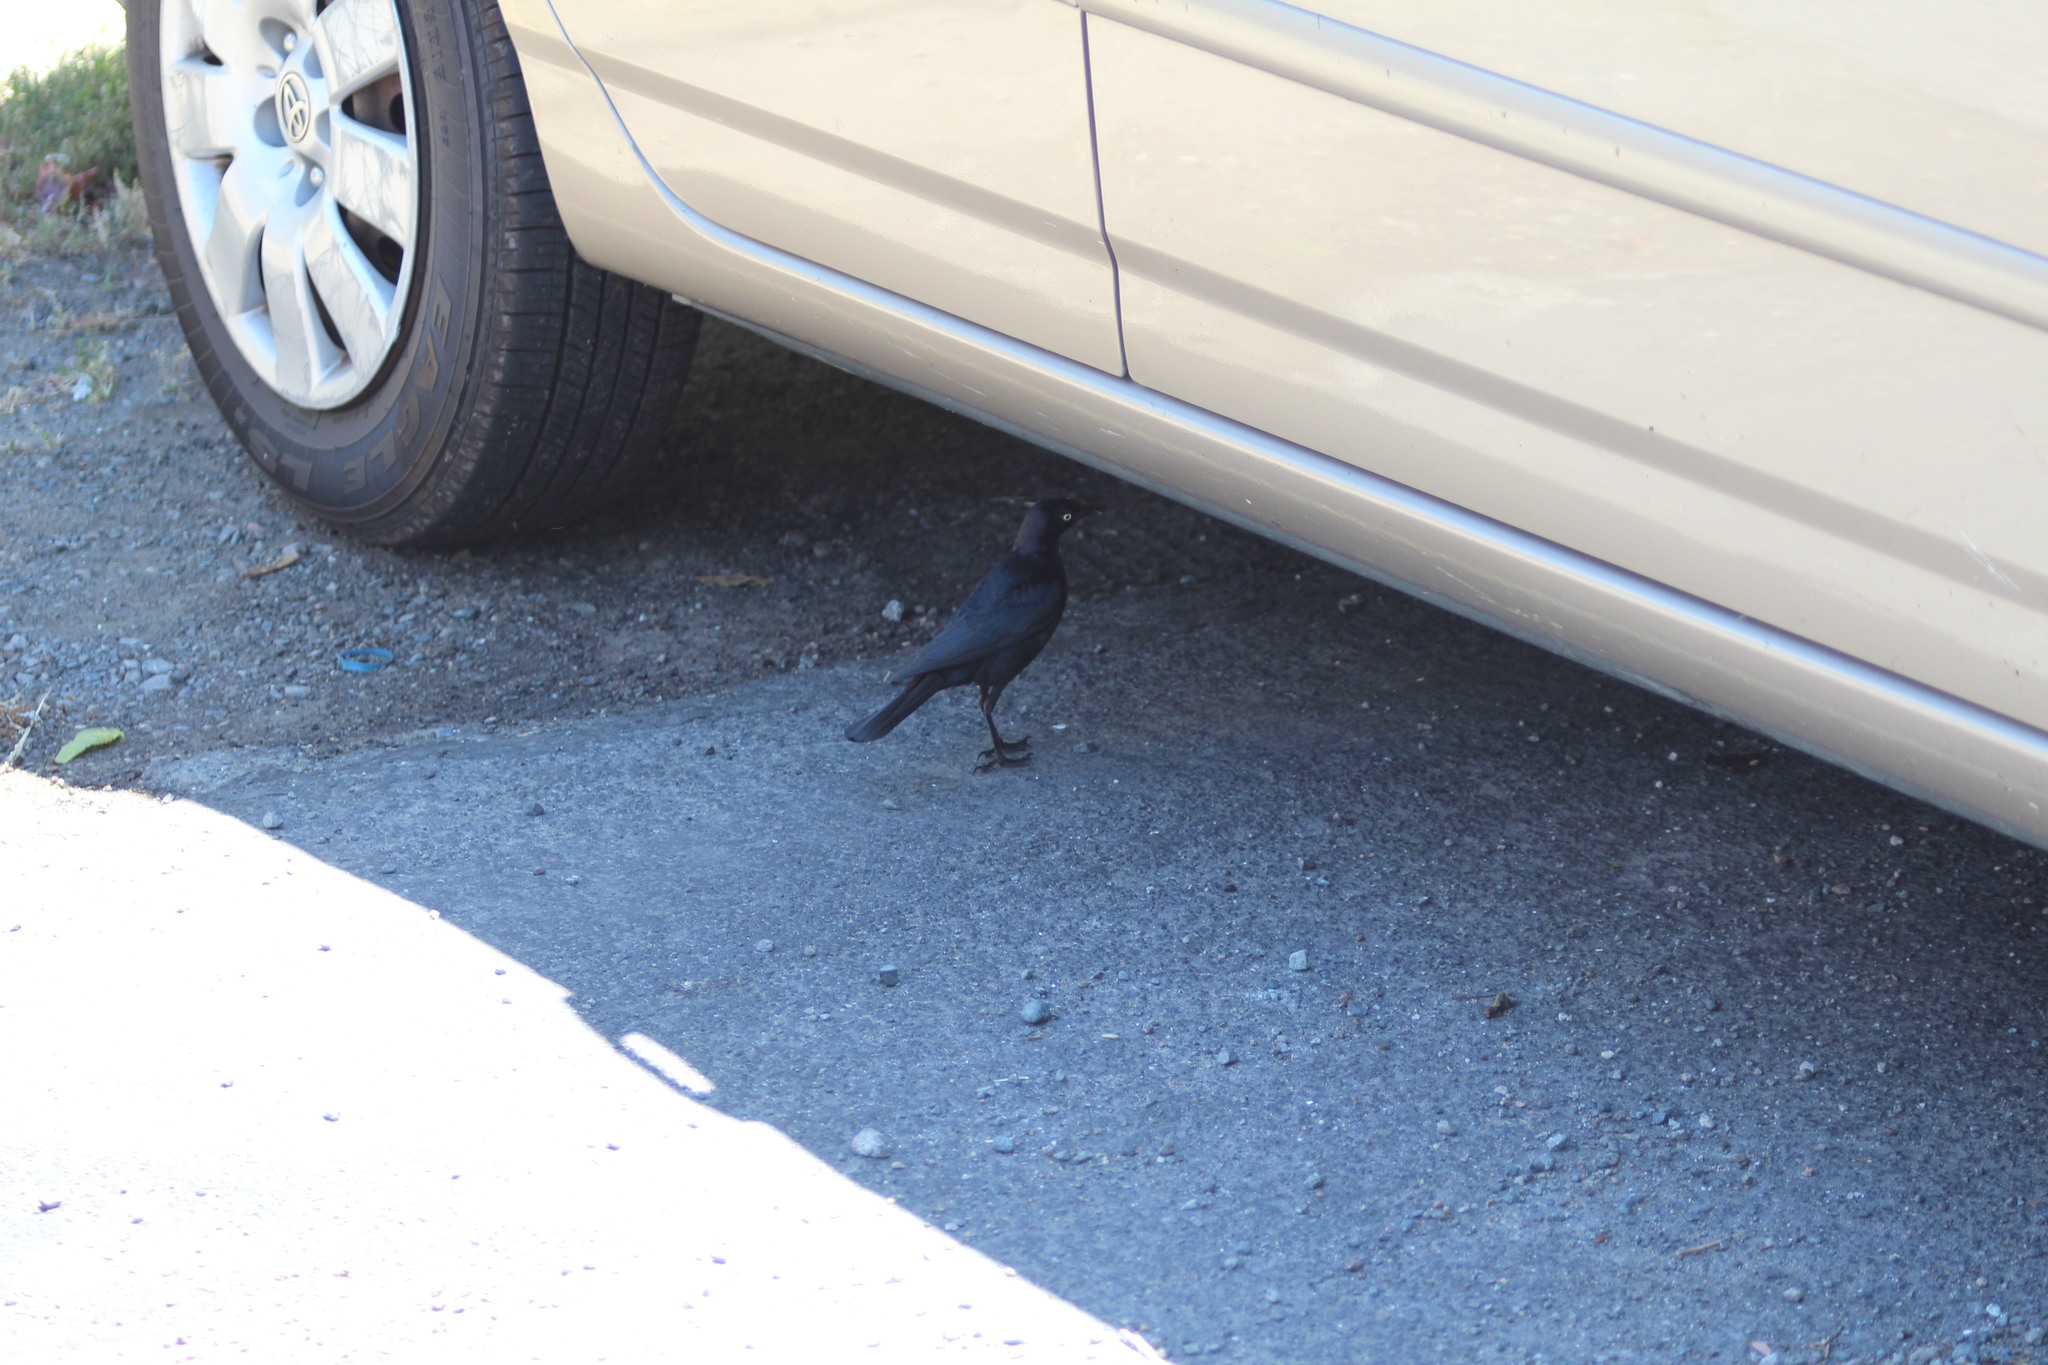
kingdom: Animalia
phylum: Chordata
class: Aves
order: Passeriformes
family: Icteridae
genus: Euphagus
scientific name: Euphagus cyanocephalus
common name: Brewer's blackbird
